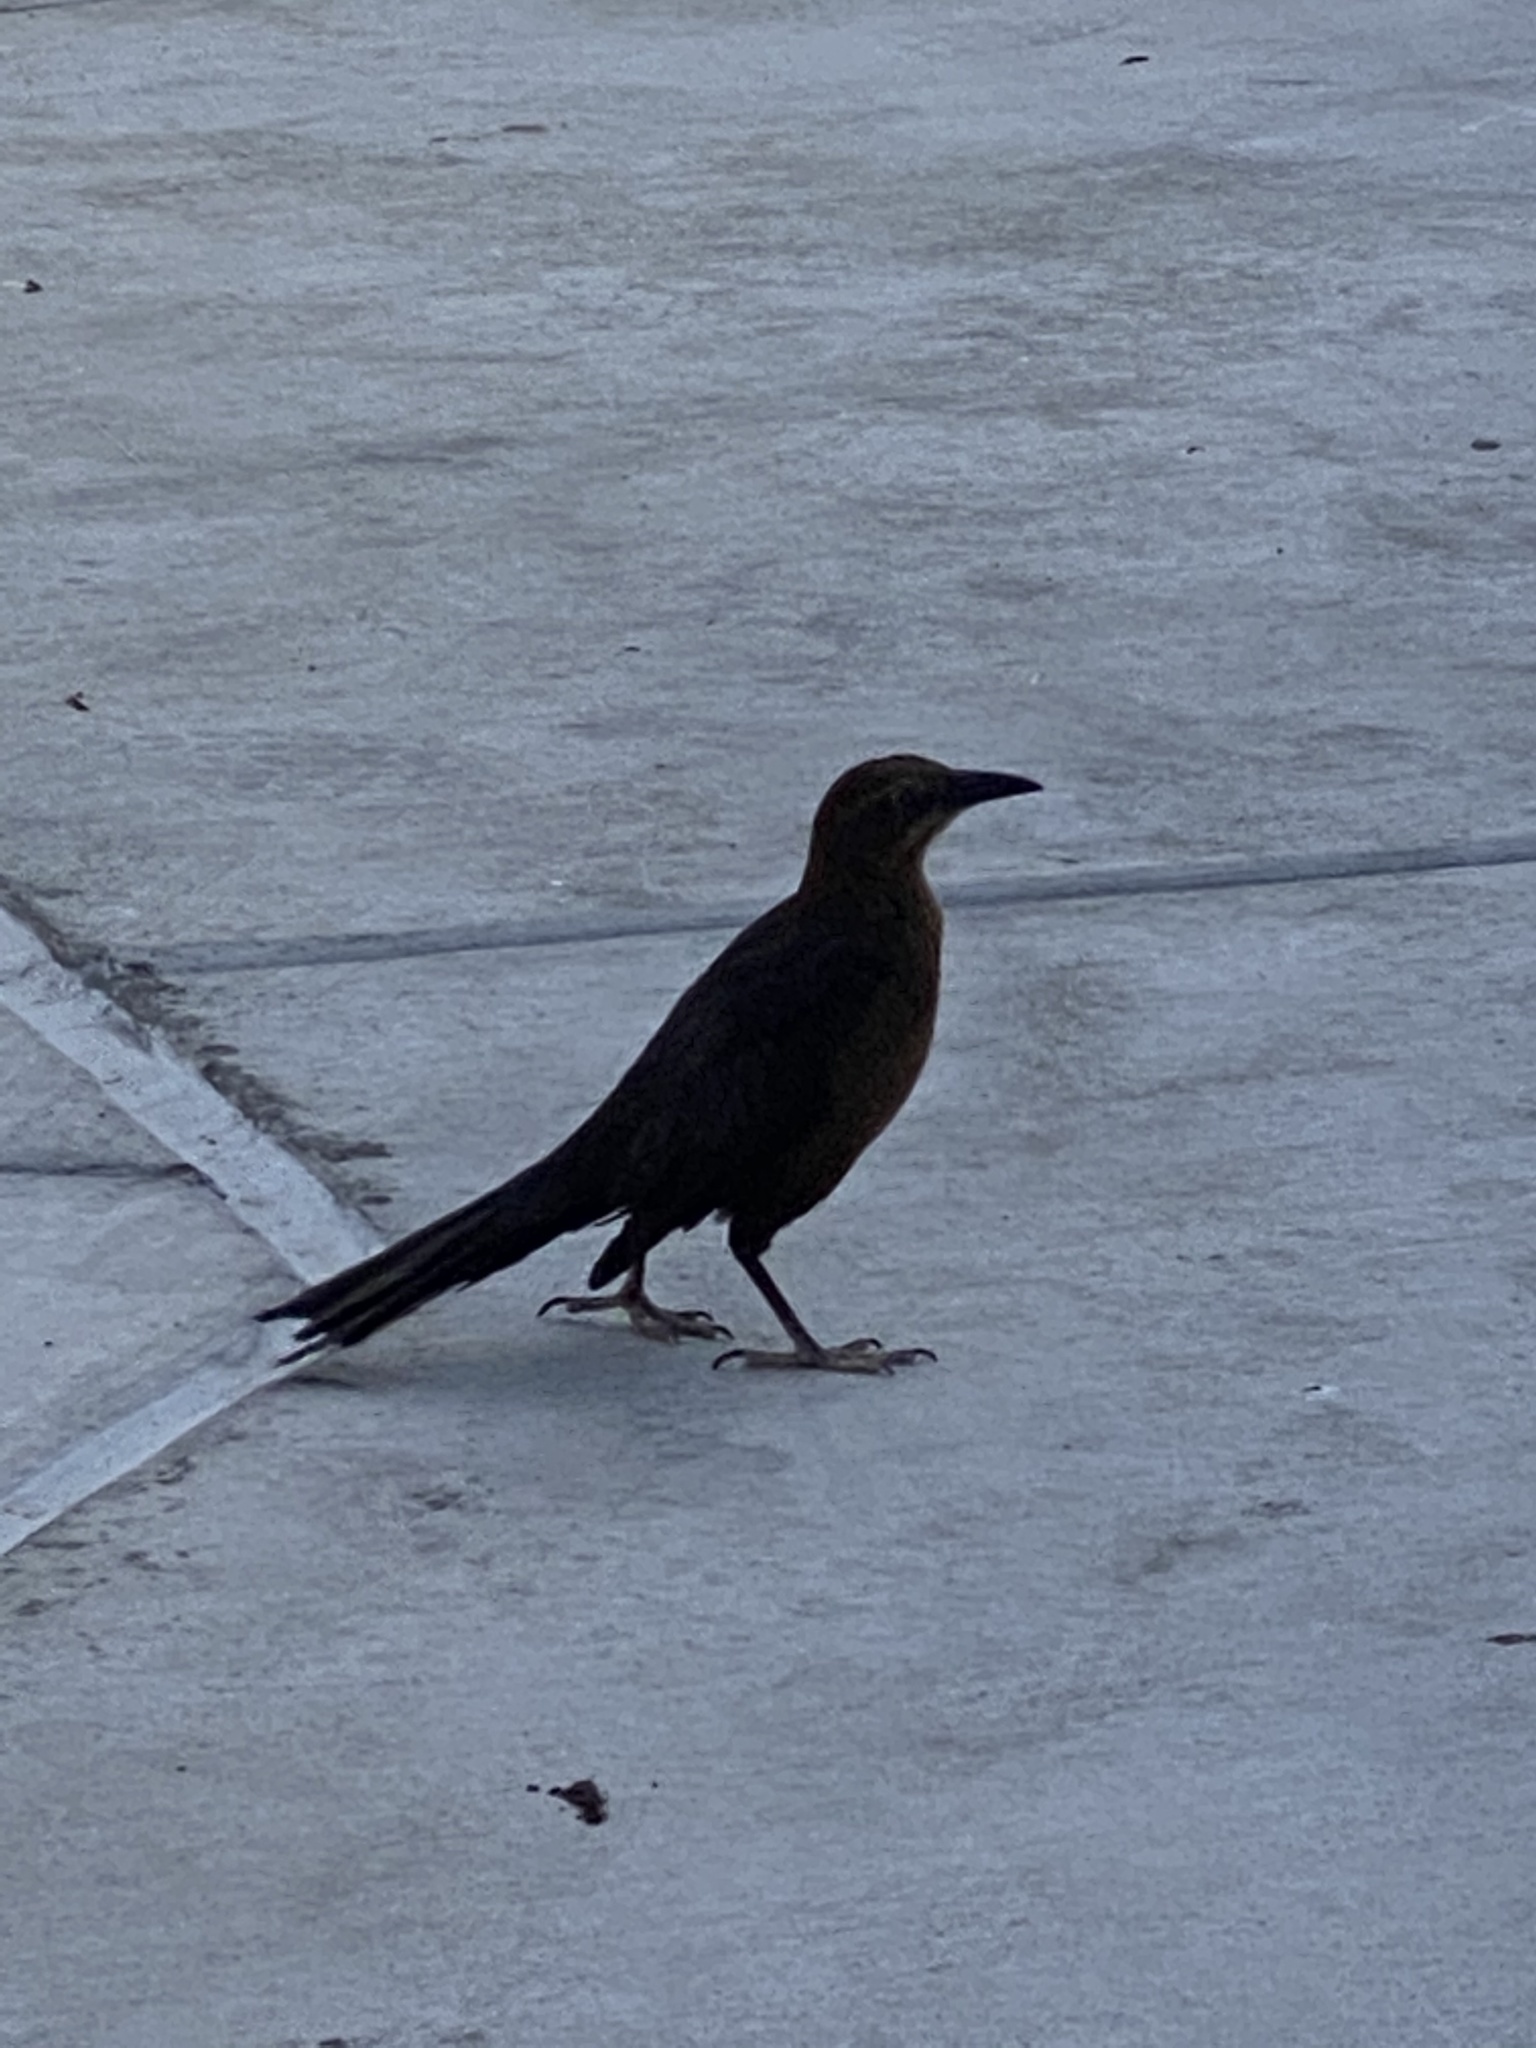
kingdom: Animalia
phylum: Chordata
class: Aves
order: Passeriformes
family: Icteridae
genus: Quiscalus
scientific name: Quiscalus mexicanus
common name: Great-tailed grackle
